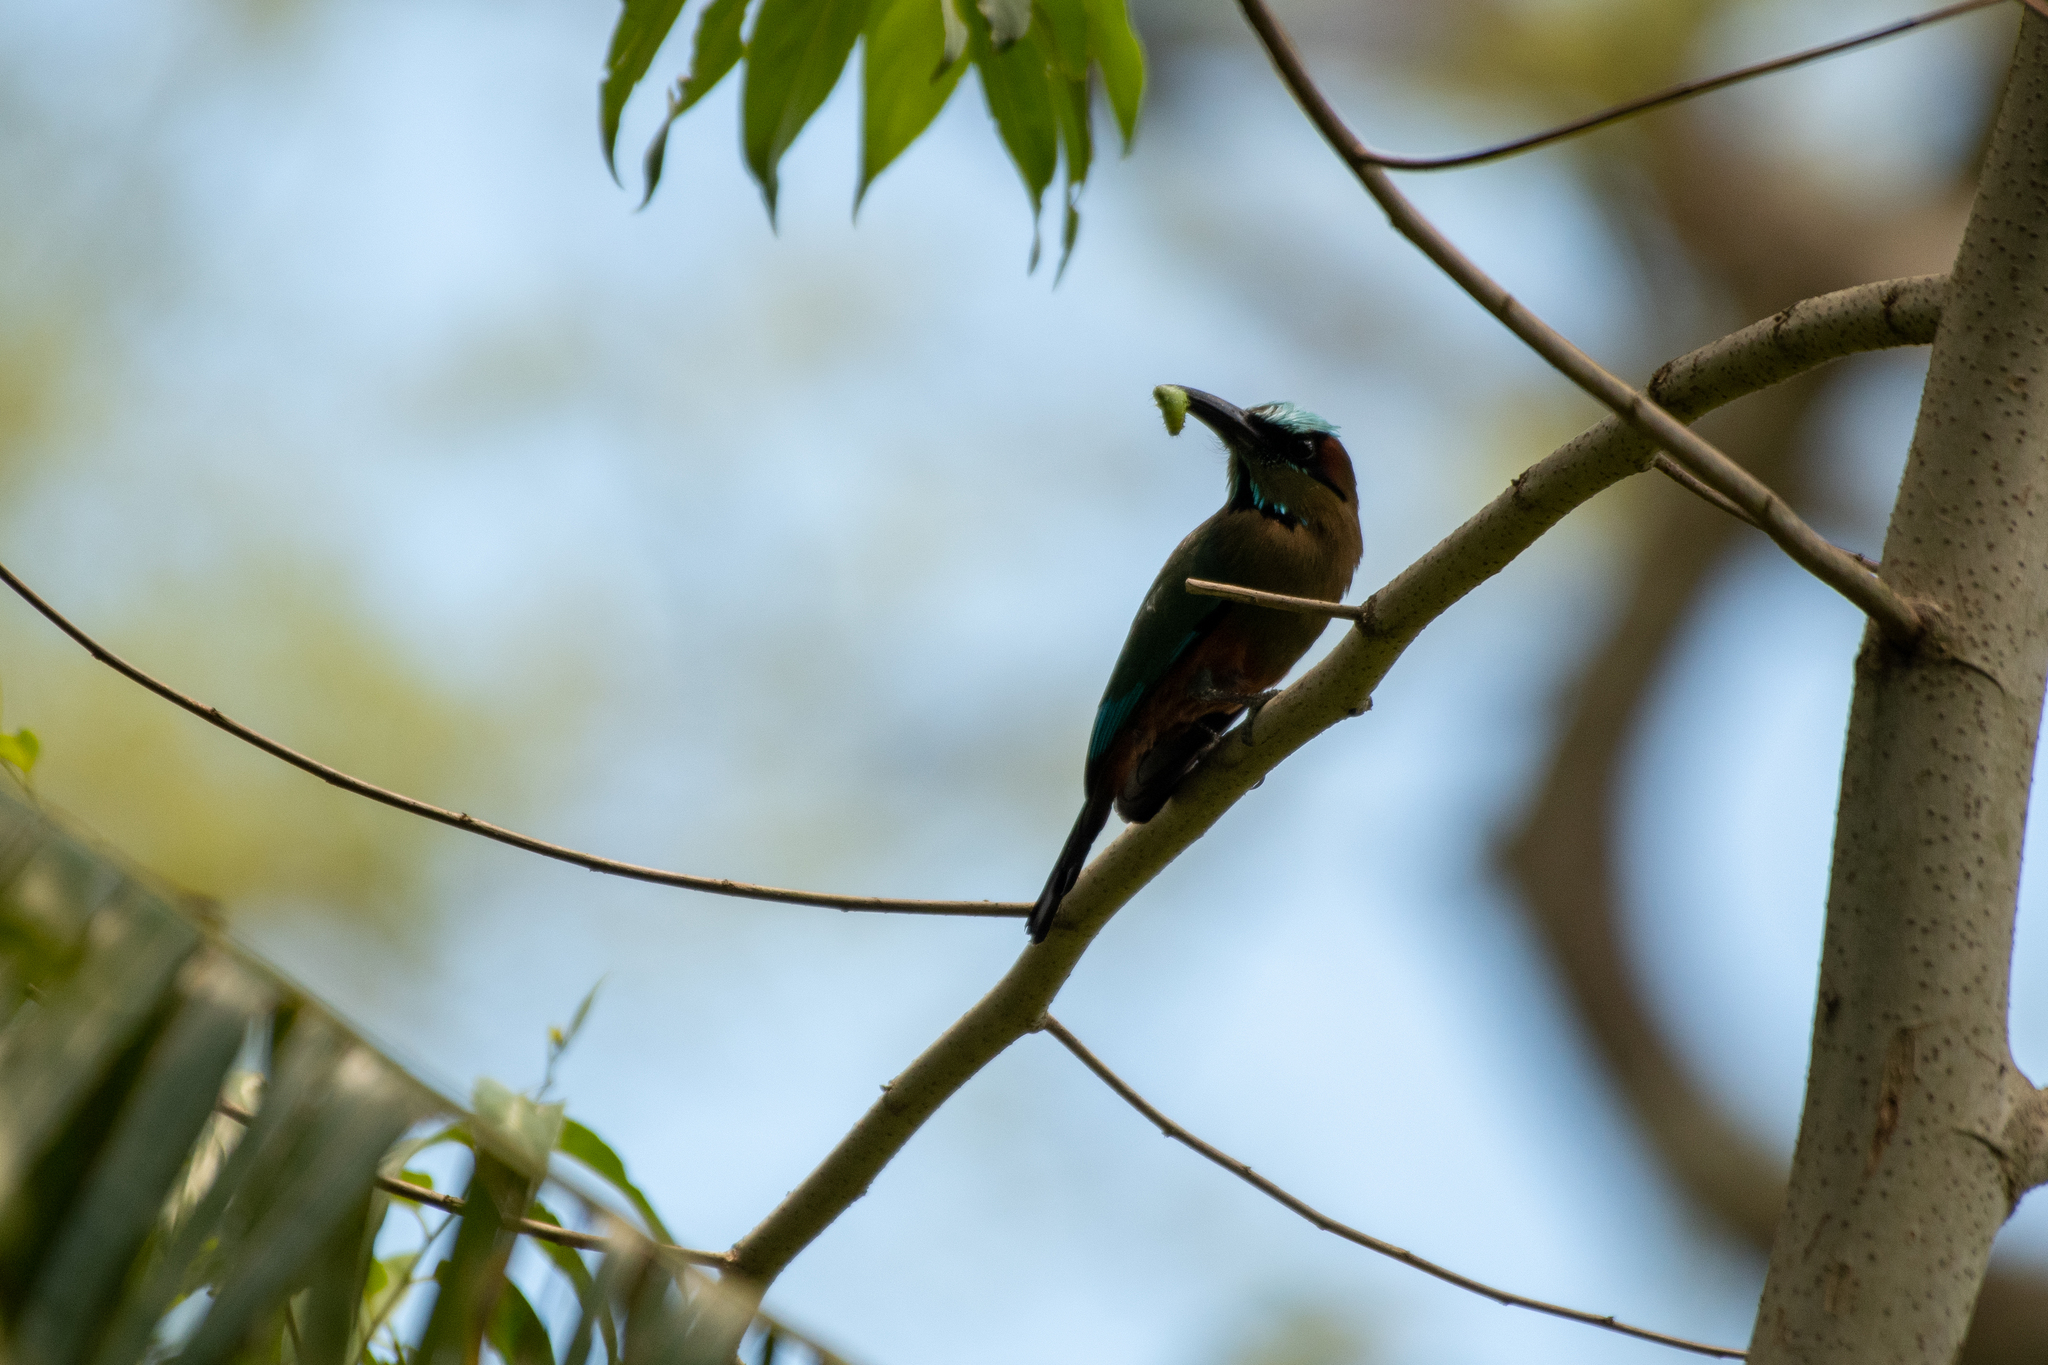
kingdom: Animalia
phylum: Chordata
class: Aves
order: Coraciiformes
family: Momotidae
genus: Eumomota
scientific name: Eumomota superciliosa
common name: Turquoise-browed motmot
